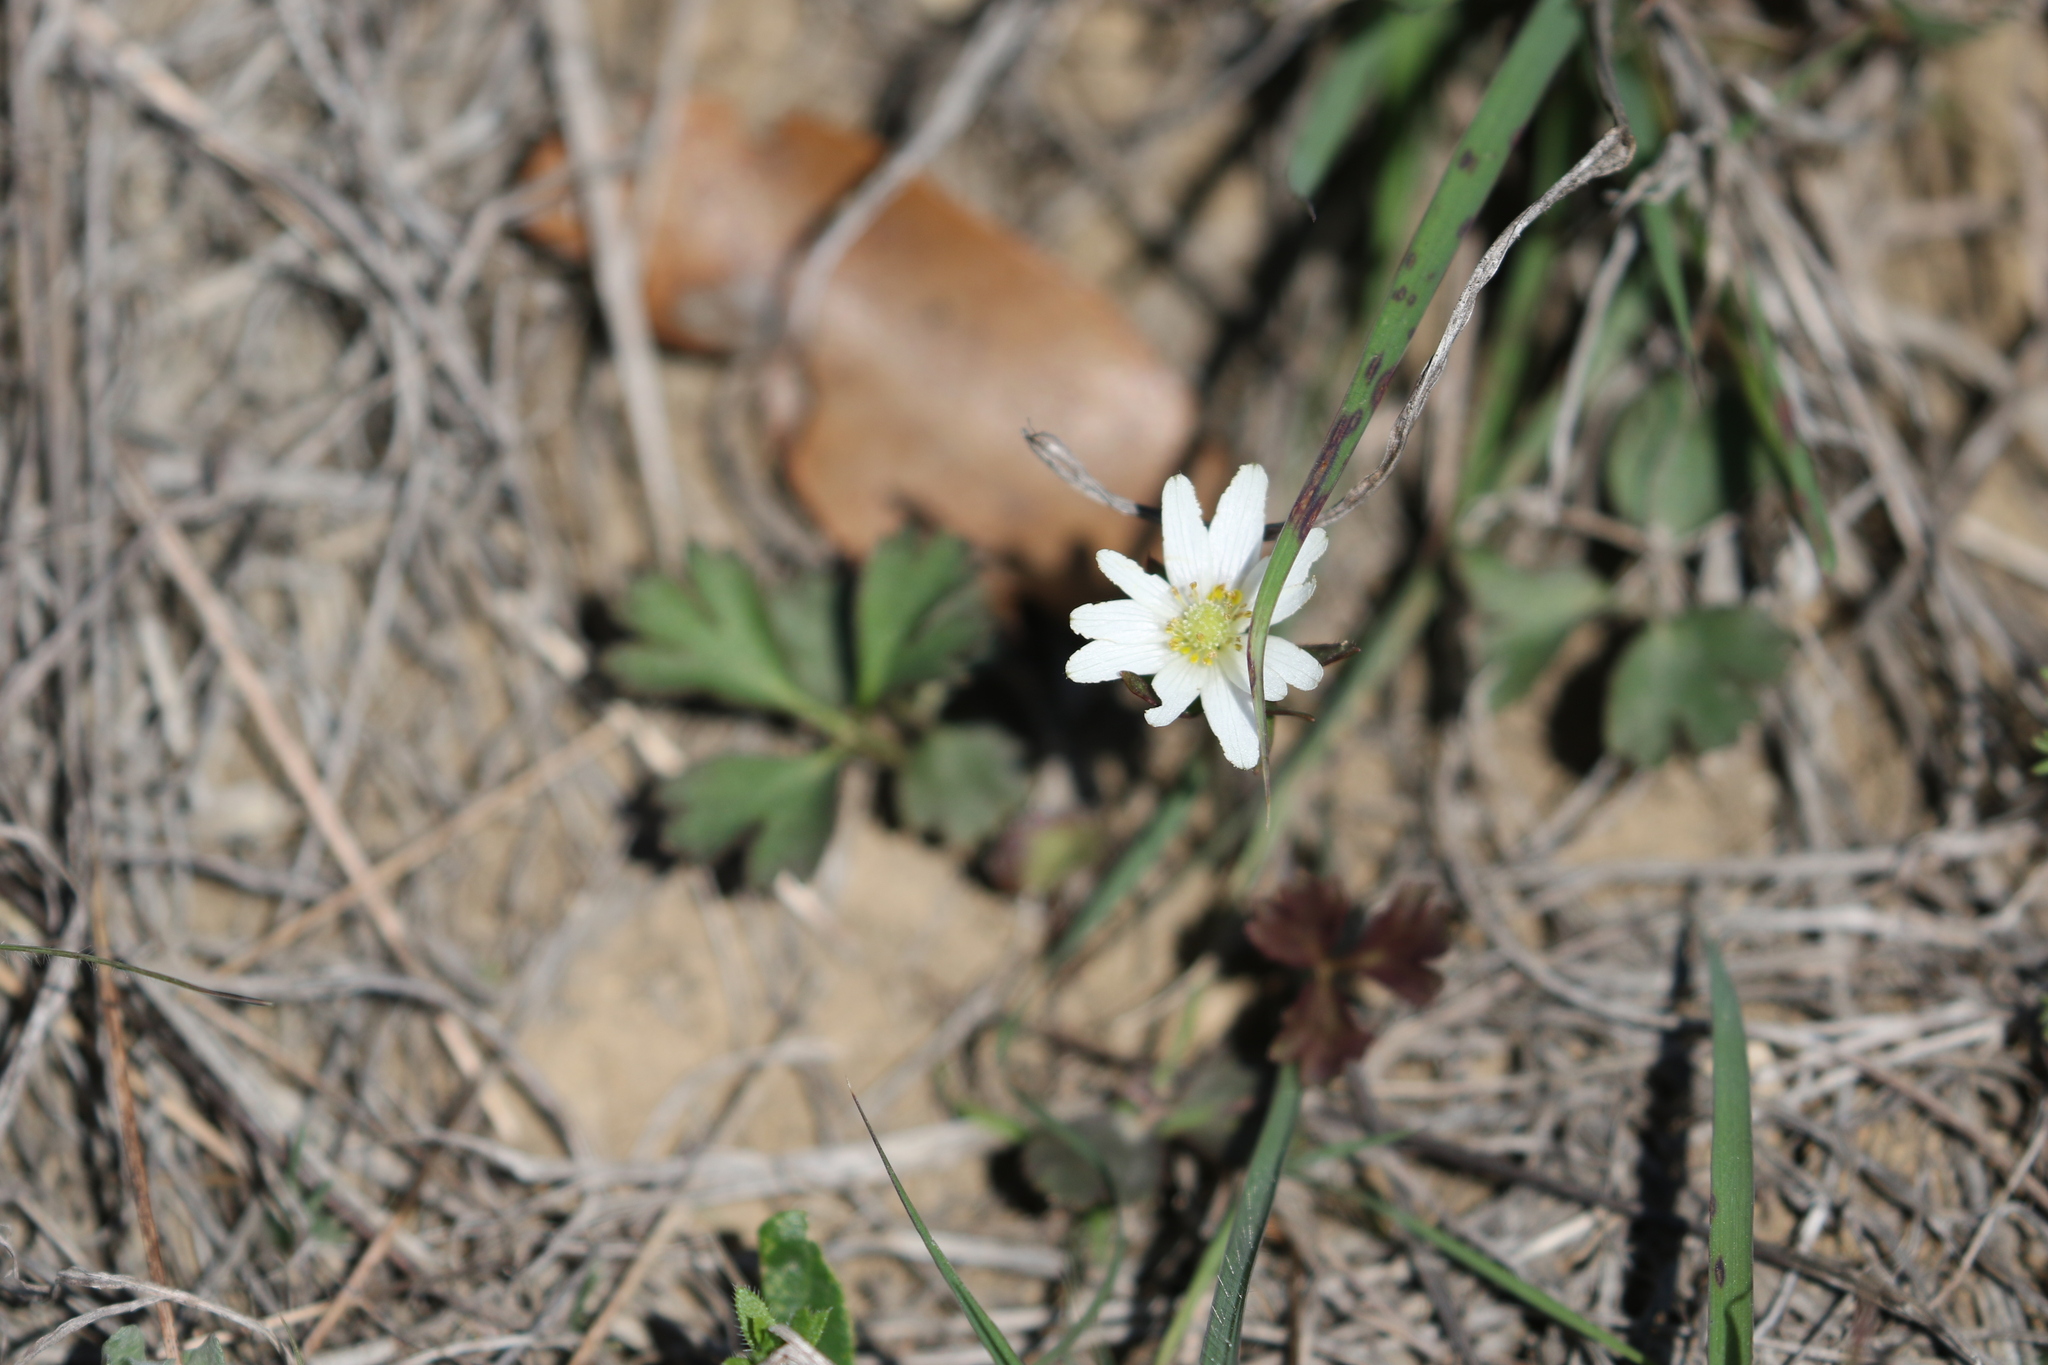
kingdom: Plantae
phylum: Tracheophyta
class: Magnoliopsida
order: Ranunculales
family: Ranunculaceae
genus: Anemone
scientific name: Anemone berlandieri
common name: Ten-petal anemone
